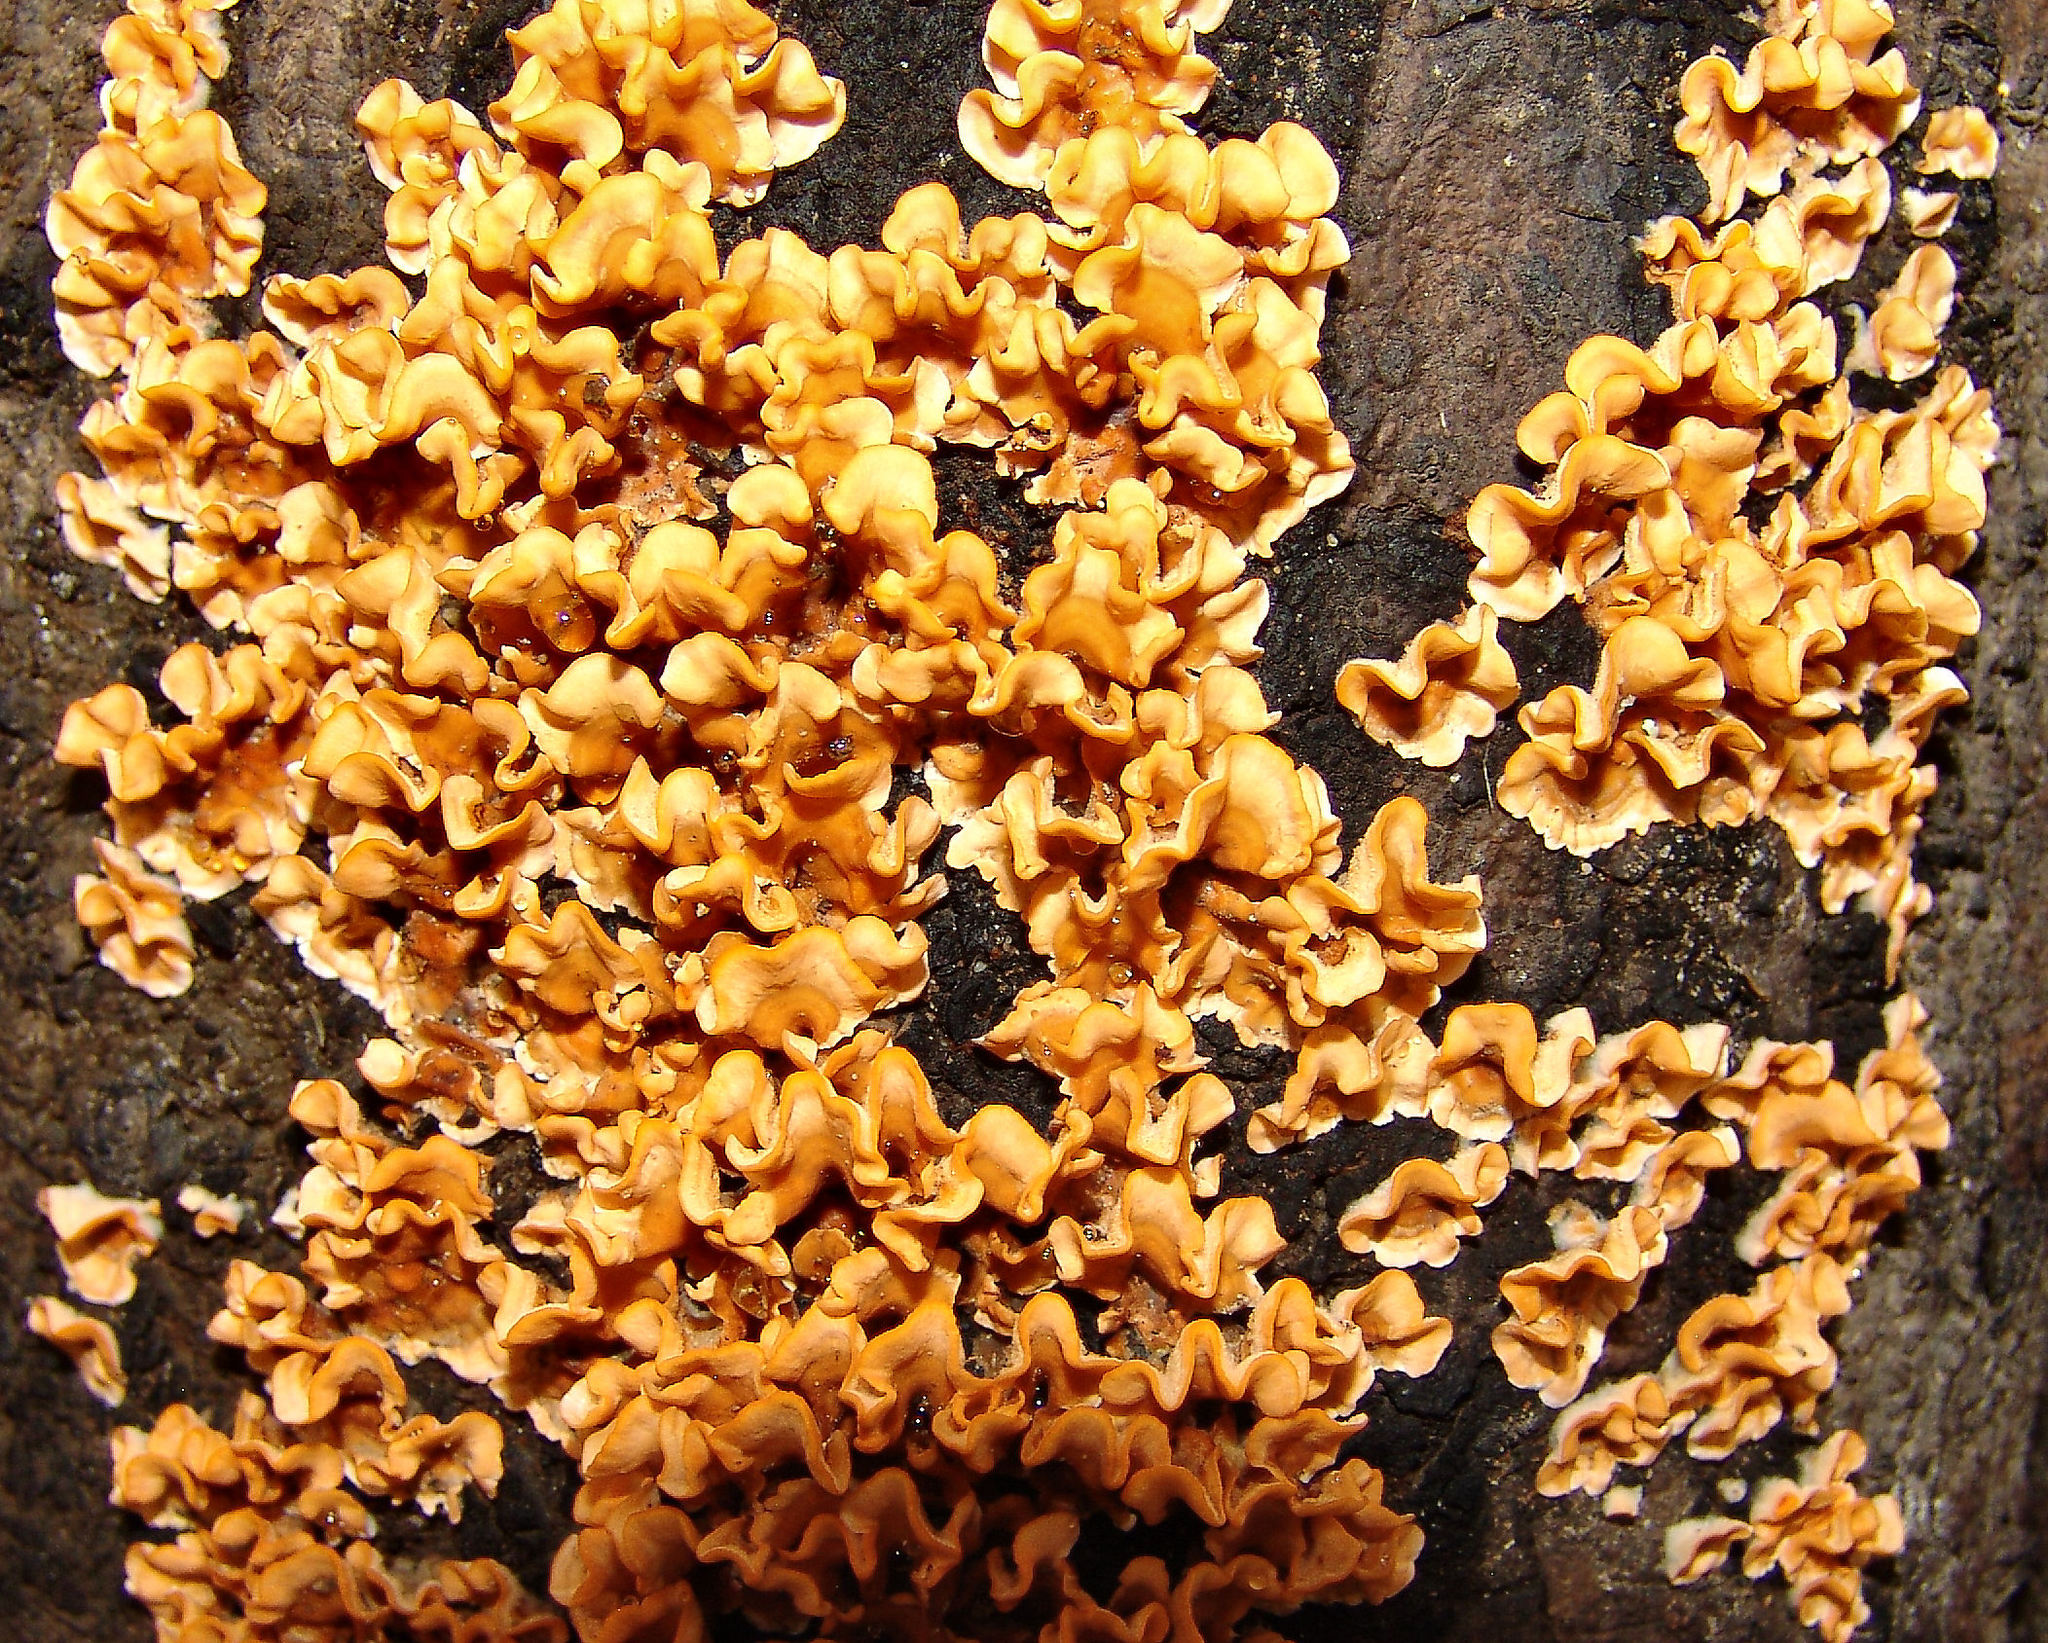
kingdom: Fungi
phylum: Basidiomycota
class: Agaricomycetes
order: Russulales
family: Stereaceae
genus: Stereum
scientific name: Stereum complicatum
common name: Crowded parchment
